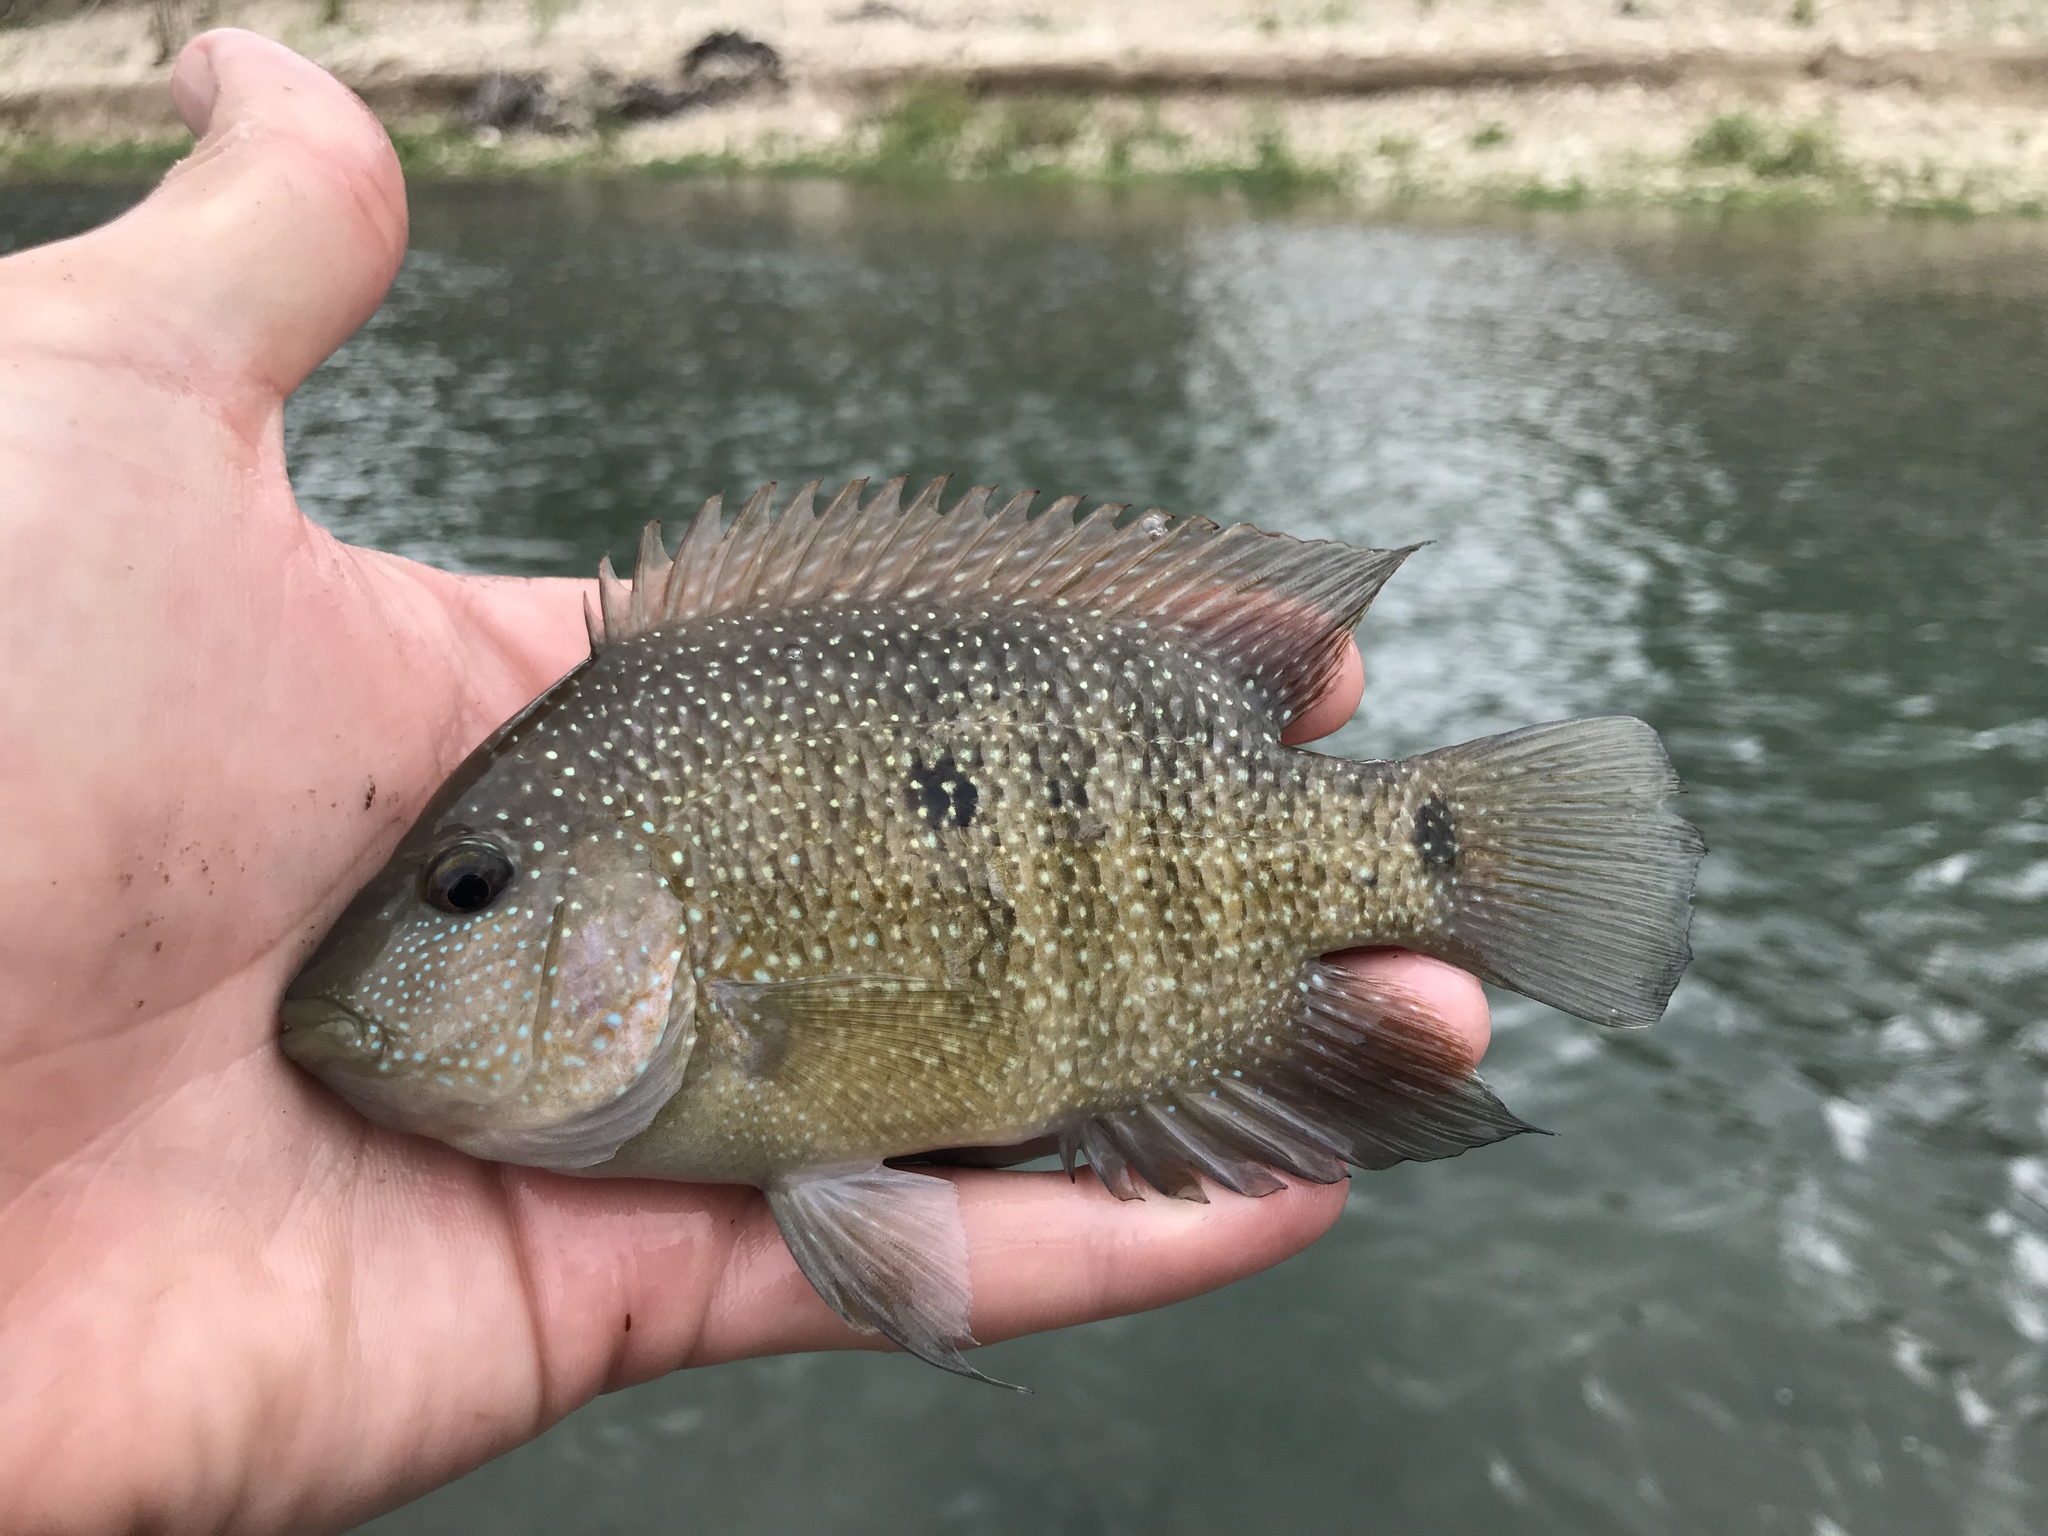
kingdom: Animalia
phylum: Chordata
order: Perciformes
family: Cichlidae
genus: Herichthys
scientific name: Herichthys cyanoguttatus
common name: Rio grande cichlid
